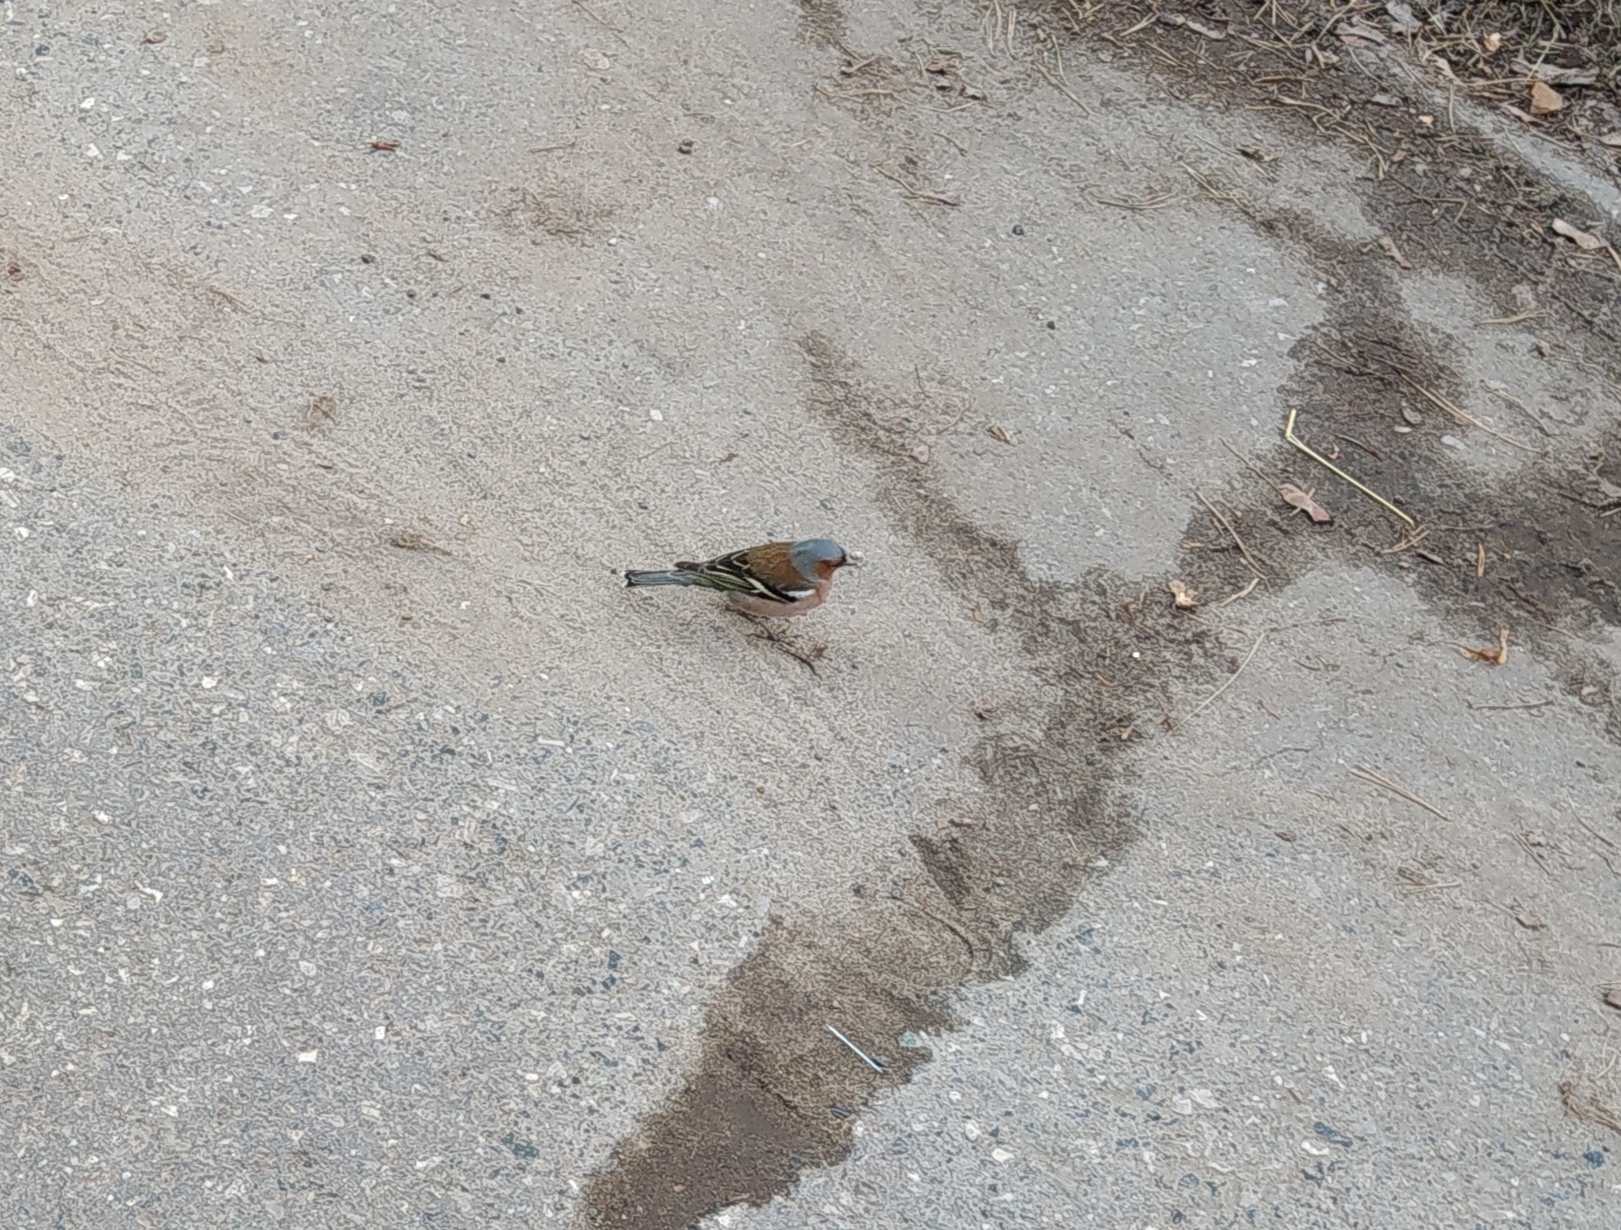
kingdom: Animalia
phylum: Chordata
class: Aves
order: Passeriformes
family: Fringillidae
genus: Fringilla
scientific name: Fringilla coelebs
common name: Common chaffinch
